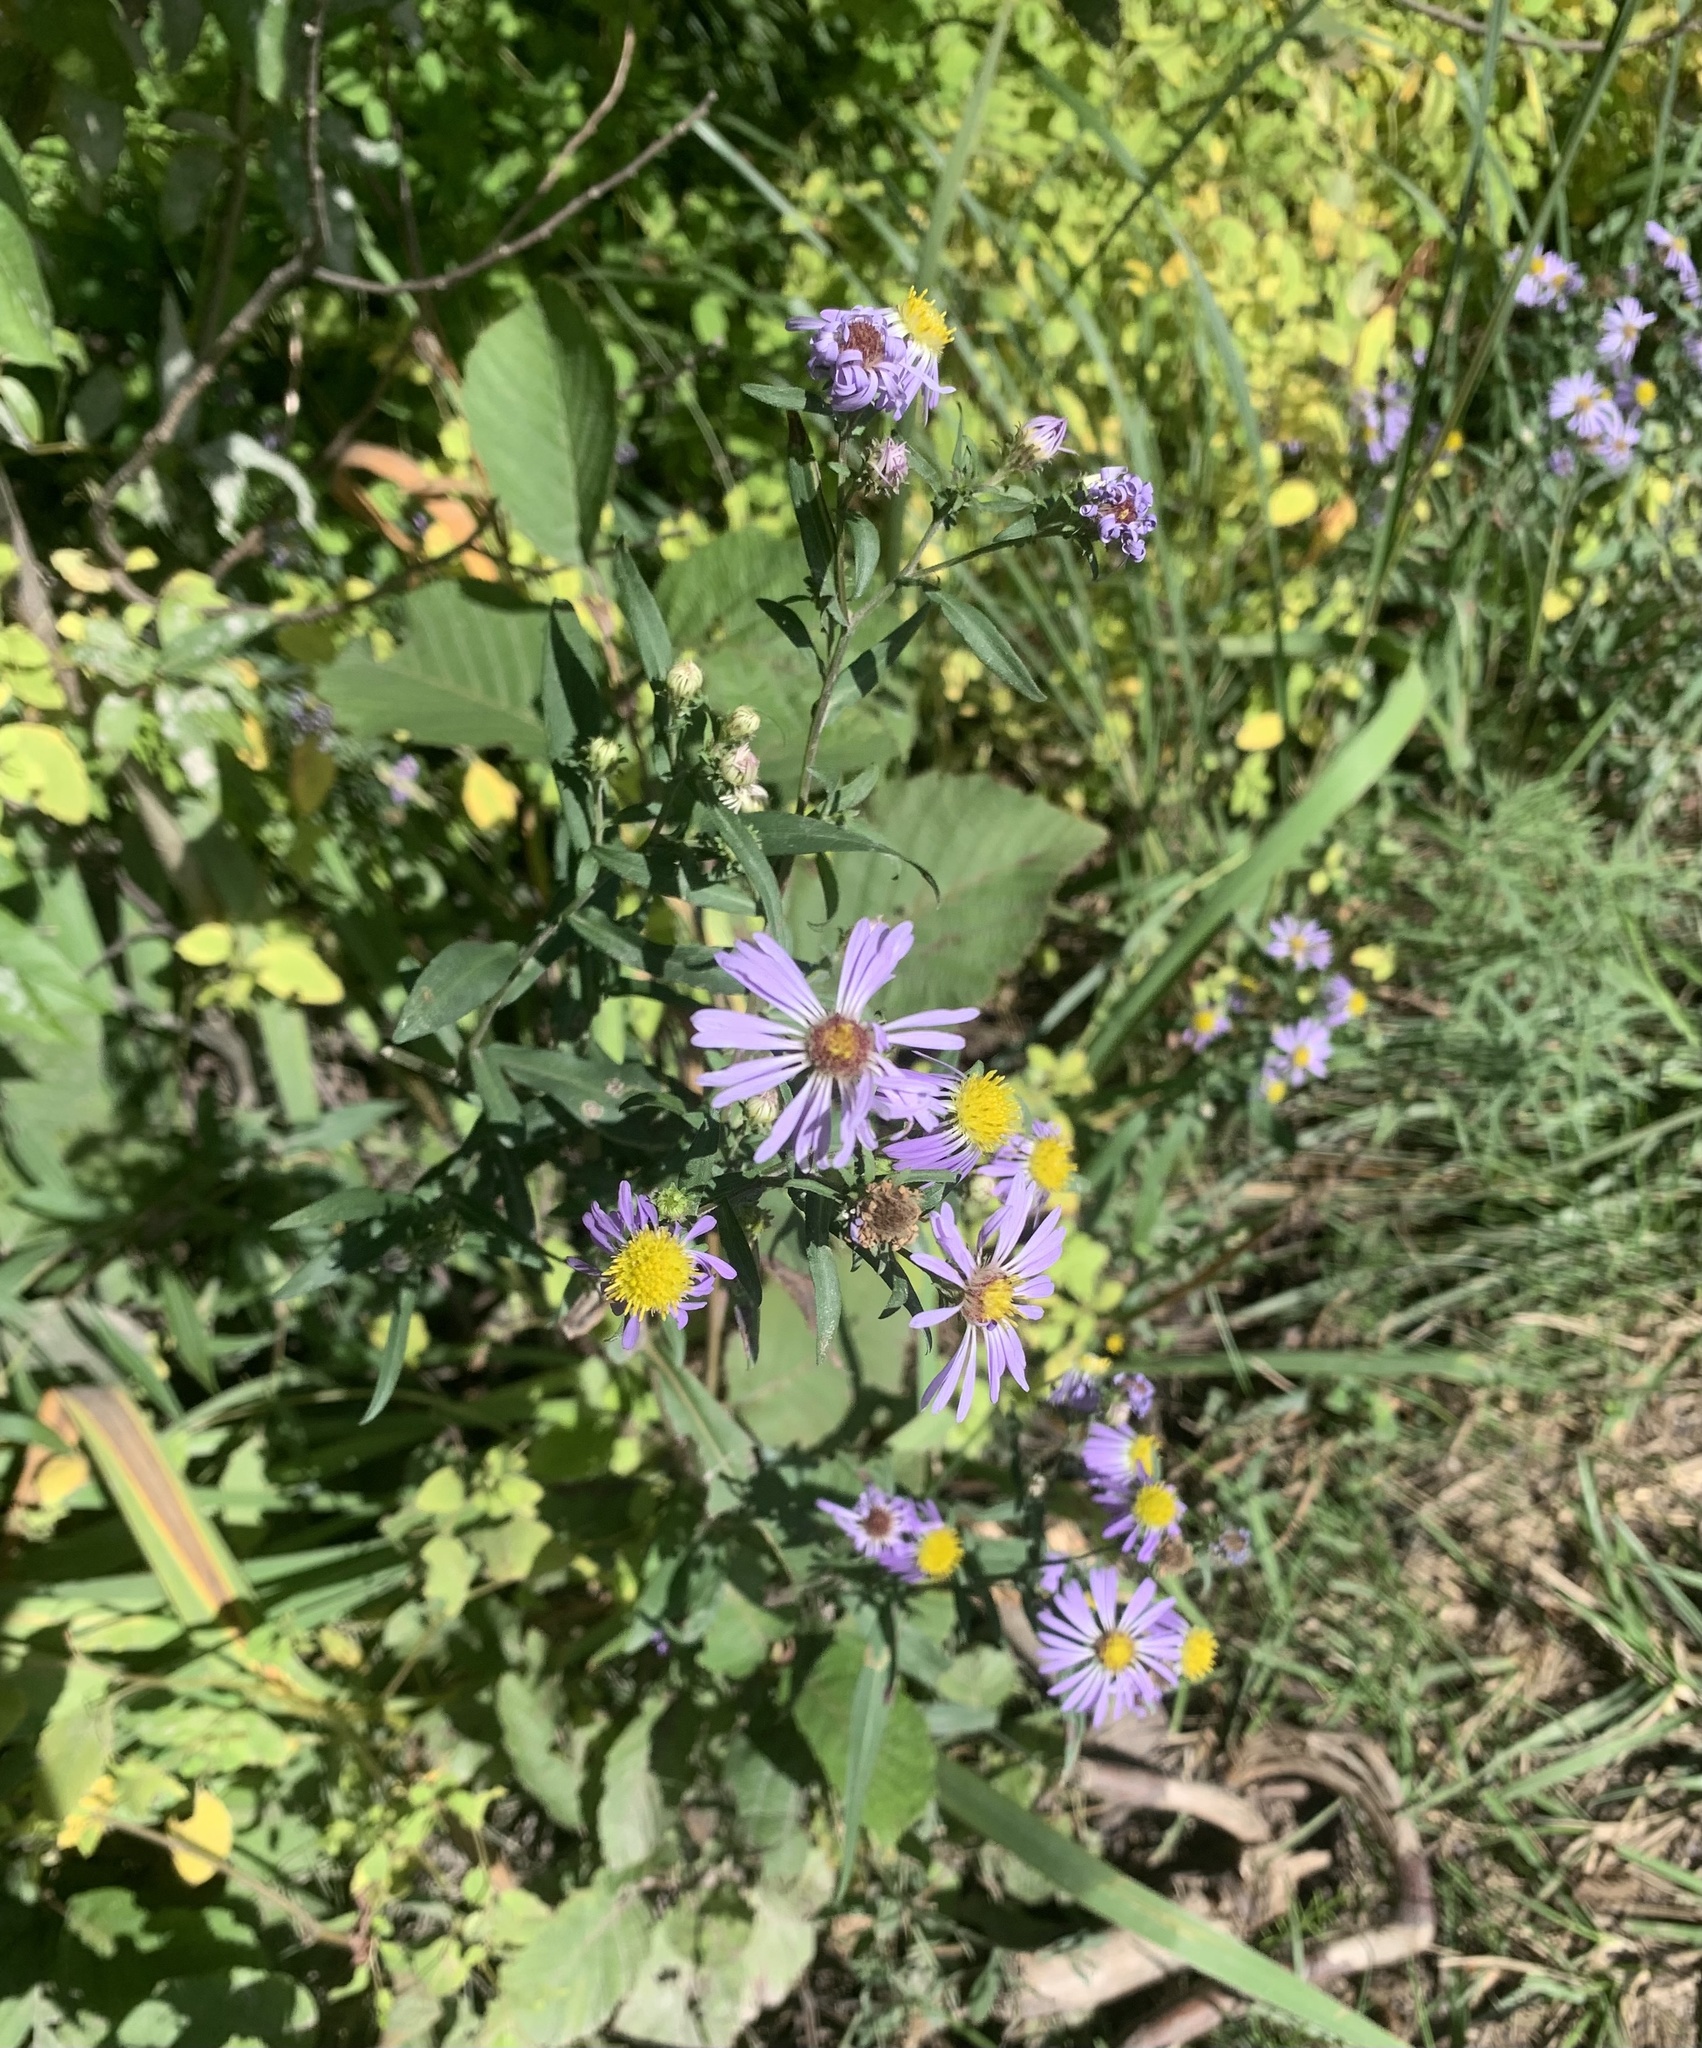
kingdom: Plantae
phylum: Tracheophyta
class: Magnoliopsida
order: Asterales
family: Asteraceae
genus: Symphyotrichum
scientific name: Symphyotrichum novi-belgii
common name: Michaelmas daisy
